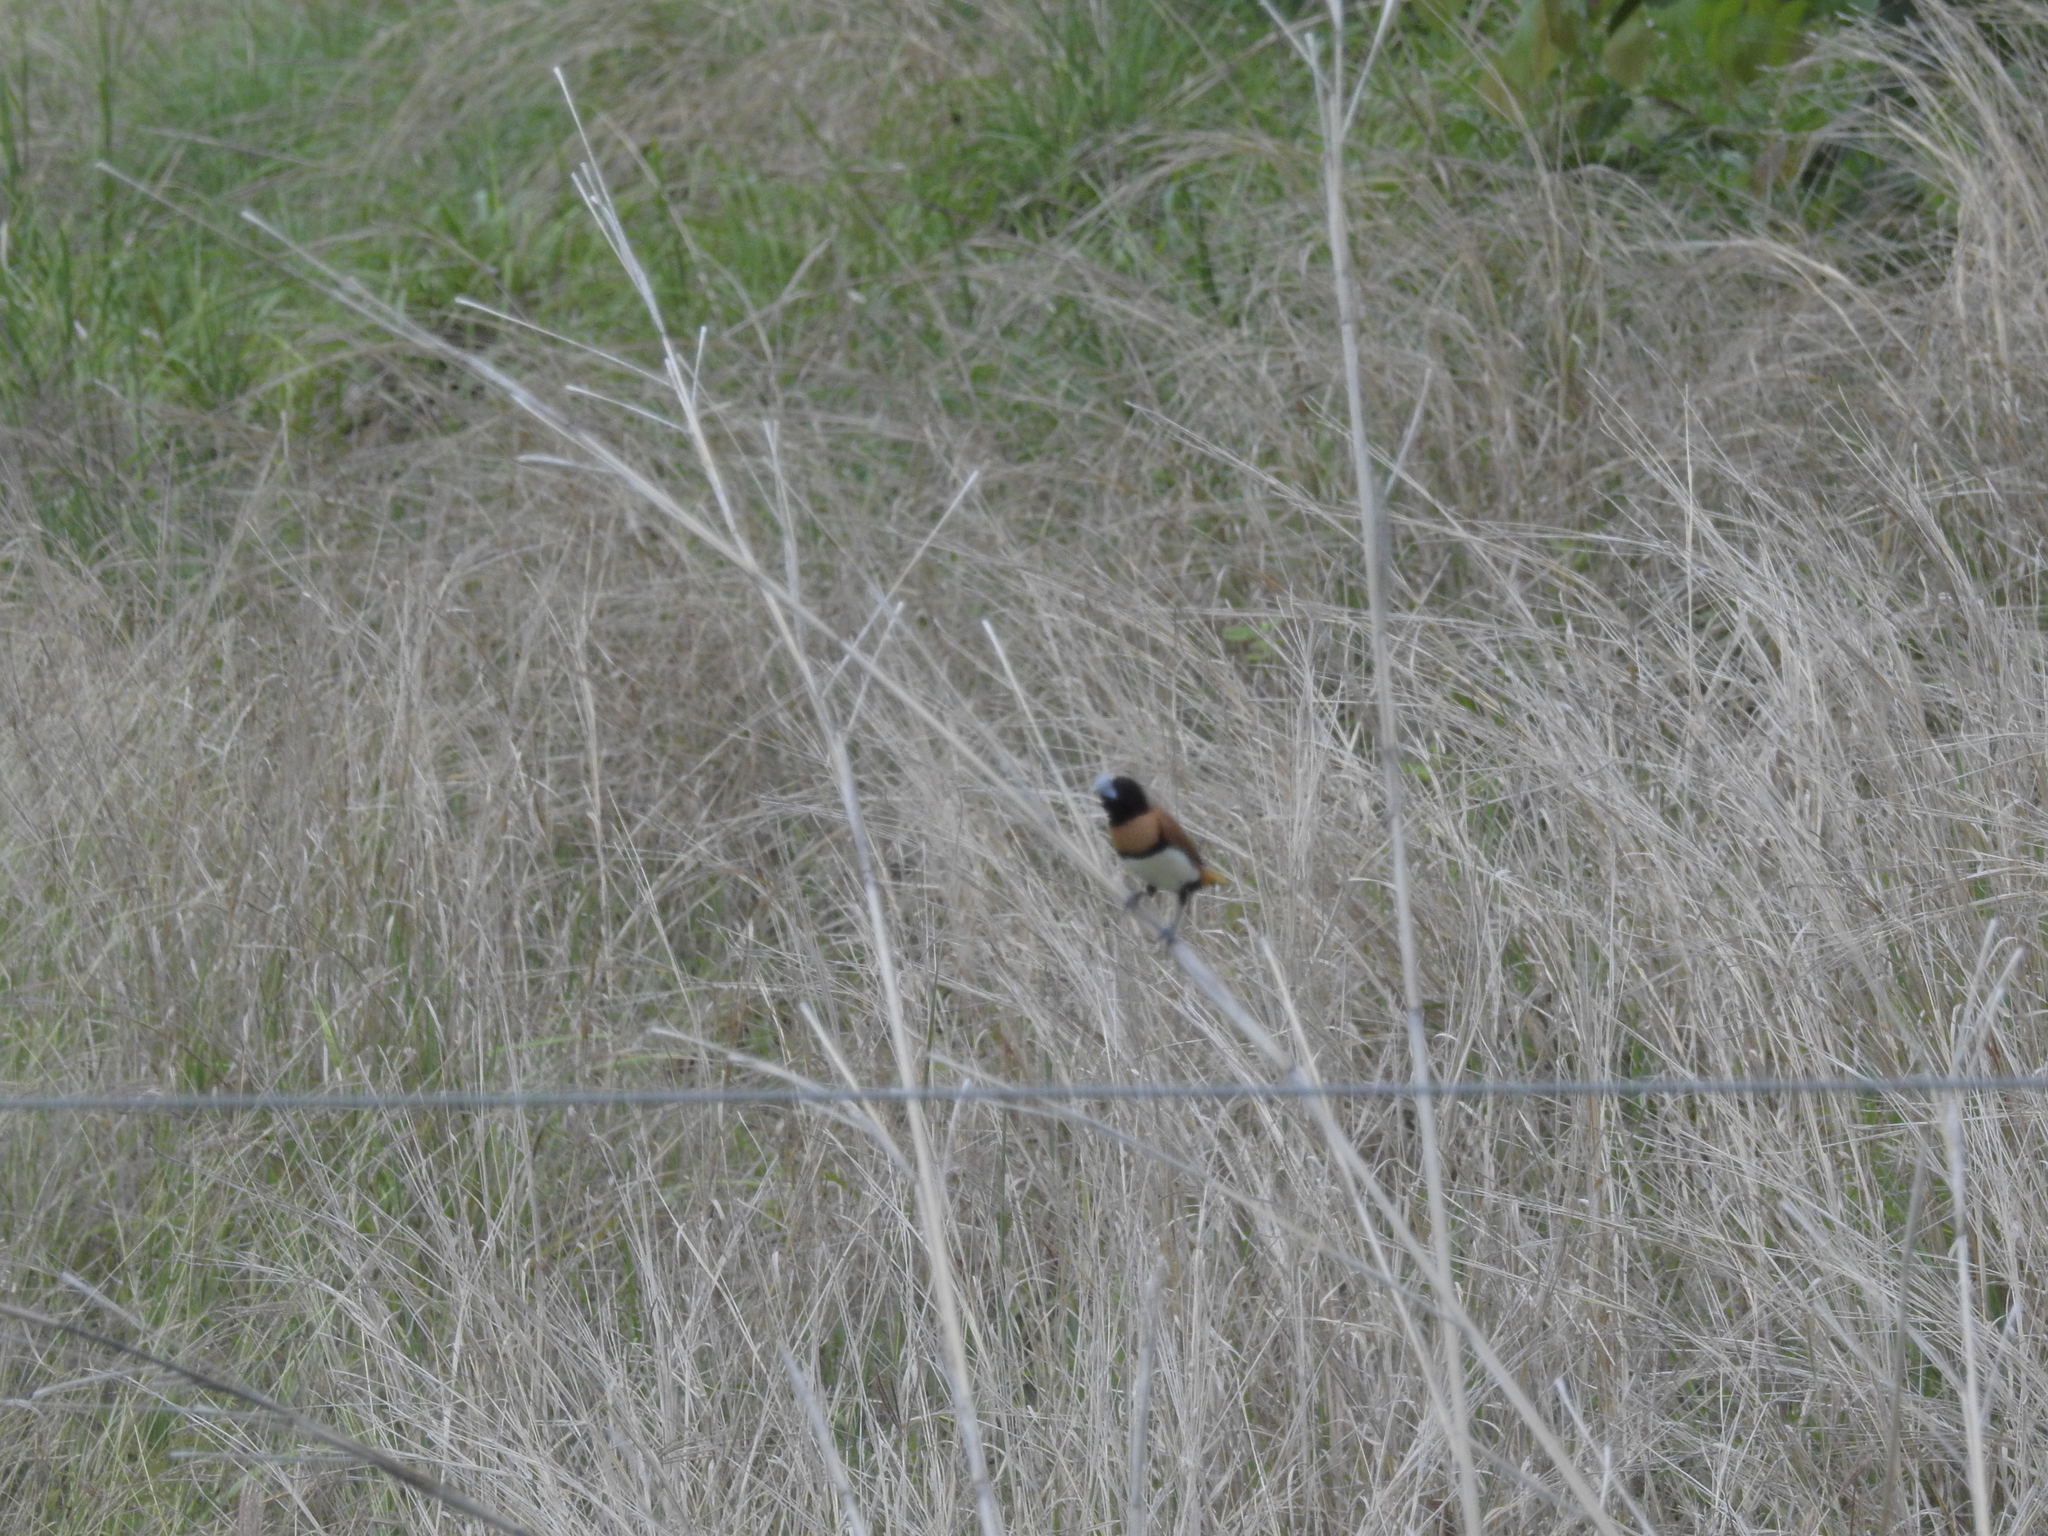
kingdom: Animalia
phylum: Chordata
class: Aves
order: Passeriformes
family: Estrildidae
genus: Lonchura
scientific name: Lonchura castaneothorax
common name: Chestnut-breasted mannikin
